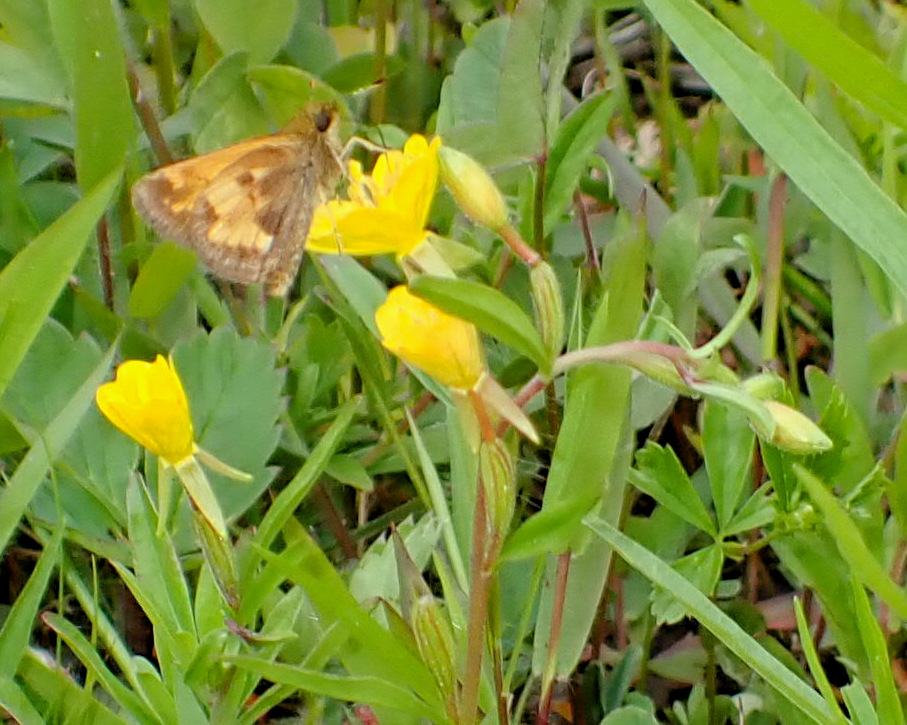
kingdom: Animalia
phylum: Arthropoda
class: Insecta
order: Lepidoptera
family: Hesperiidae
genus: Lon
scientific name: Lon hobomok
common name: Hobomok skipper
